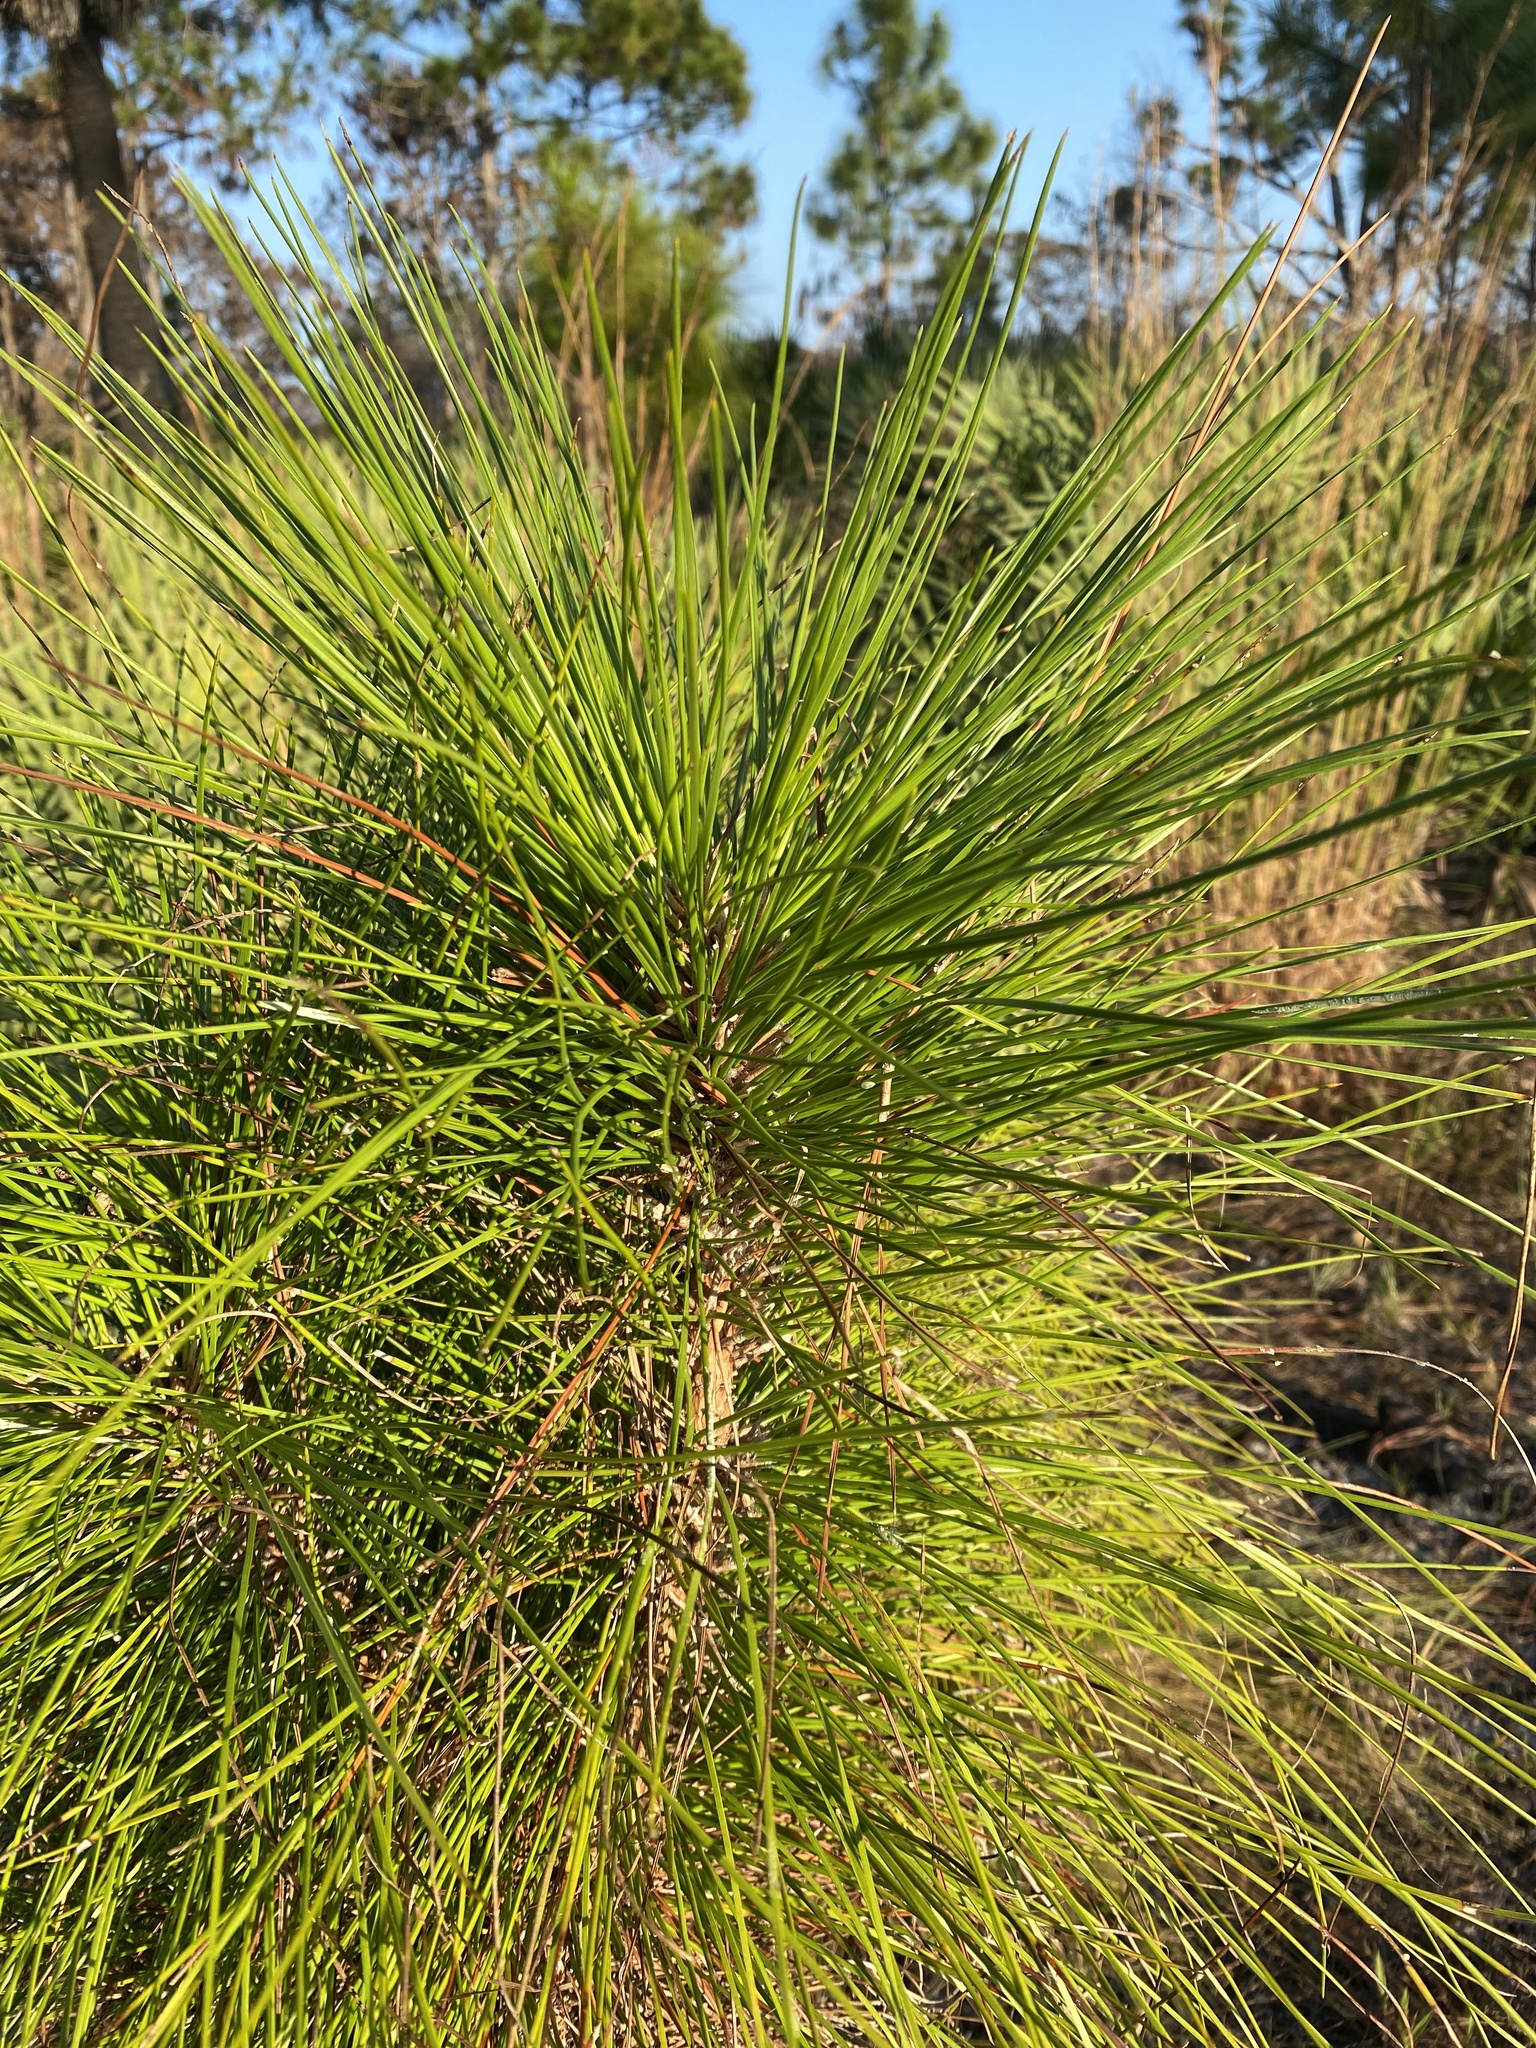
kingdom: Plantae
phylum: Tracheophyta
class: Pinopsida
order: Pinales
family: Pinaceae
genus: Pinus
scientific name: Pinus elliottii
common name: Slash pine
